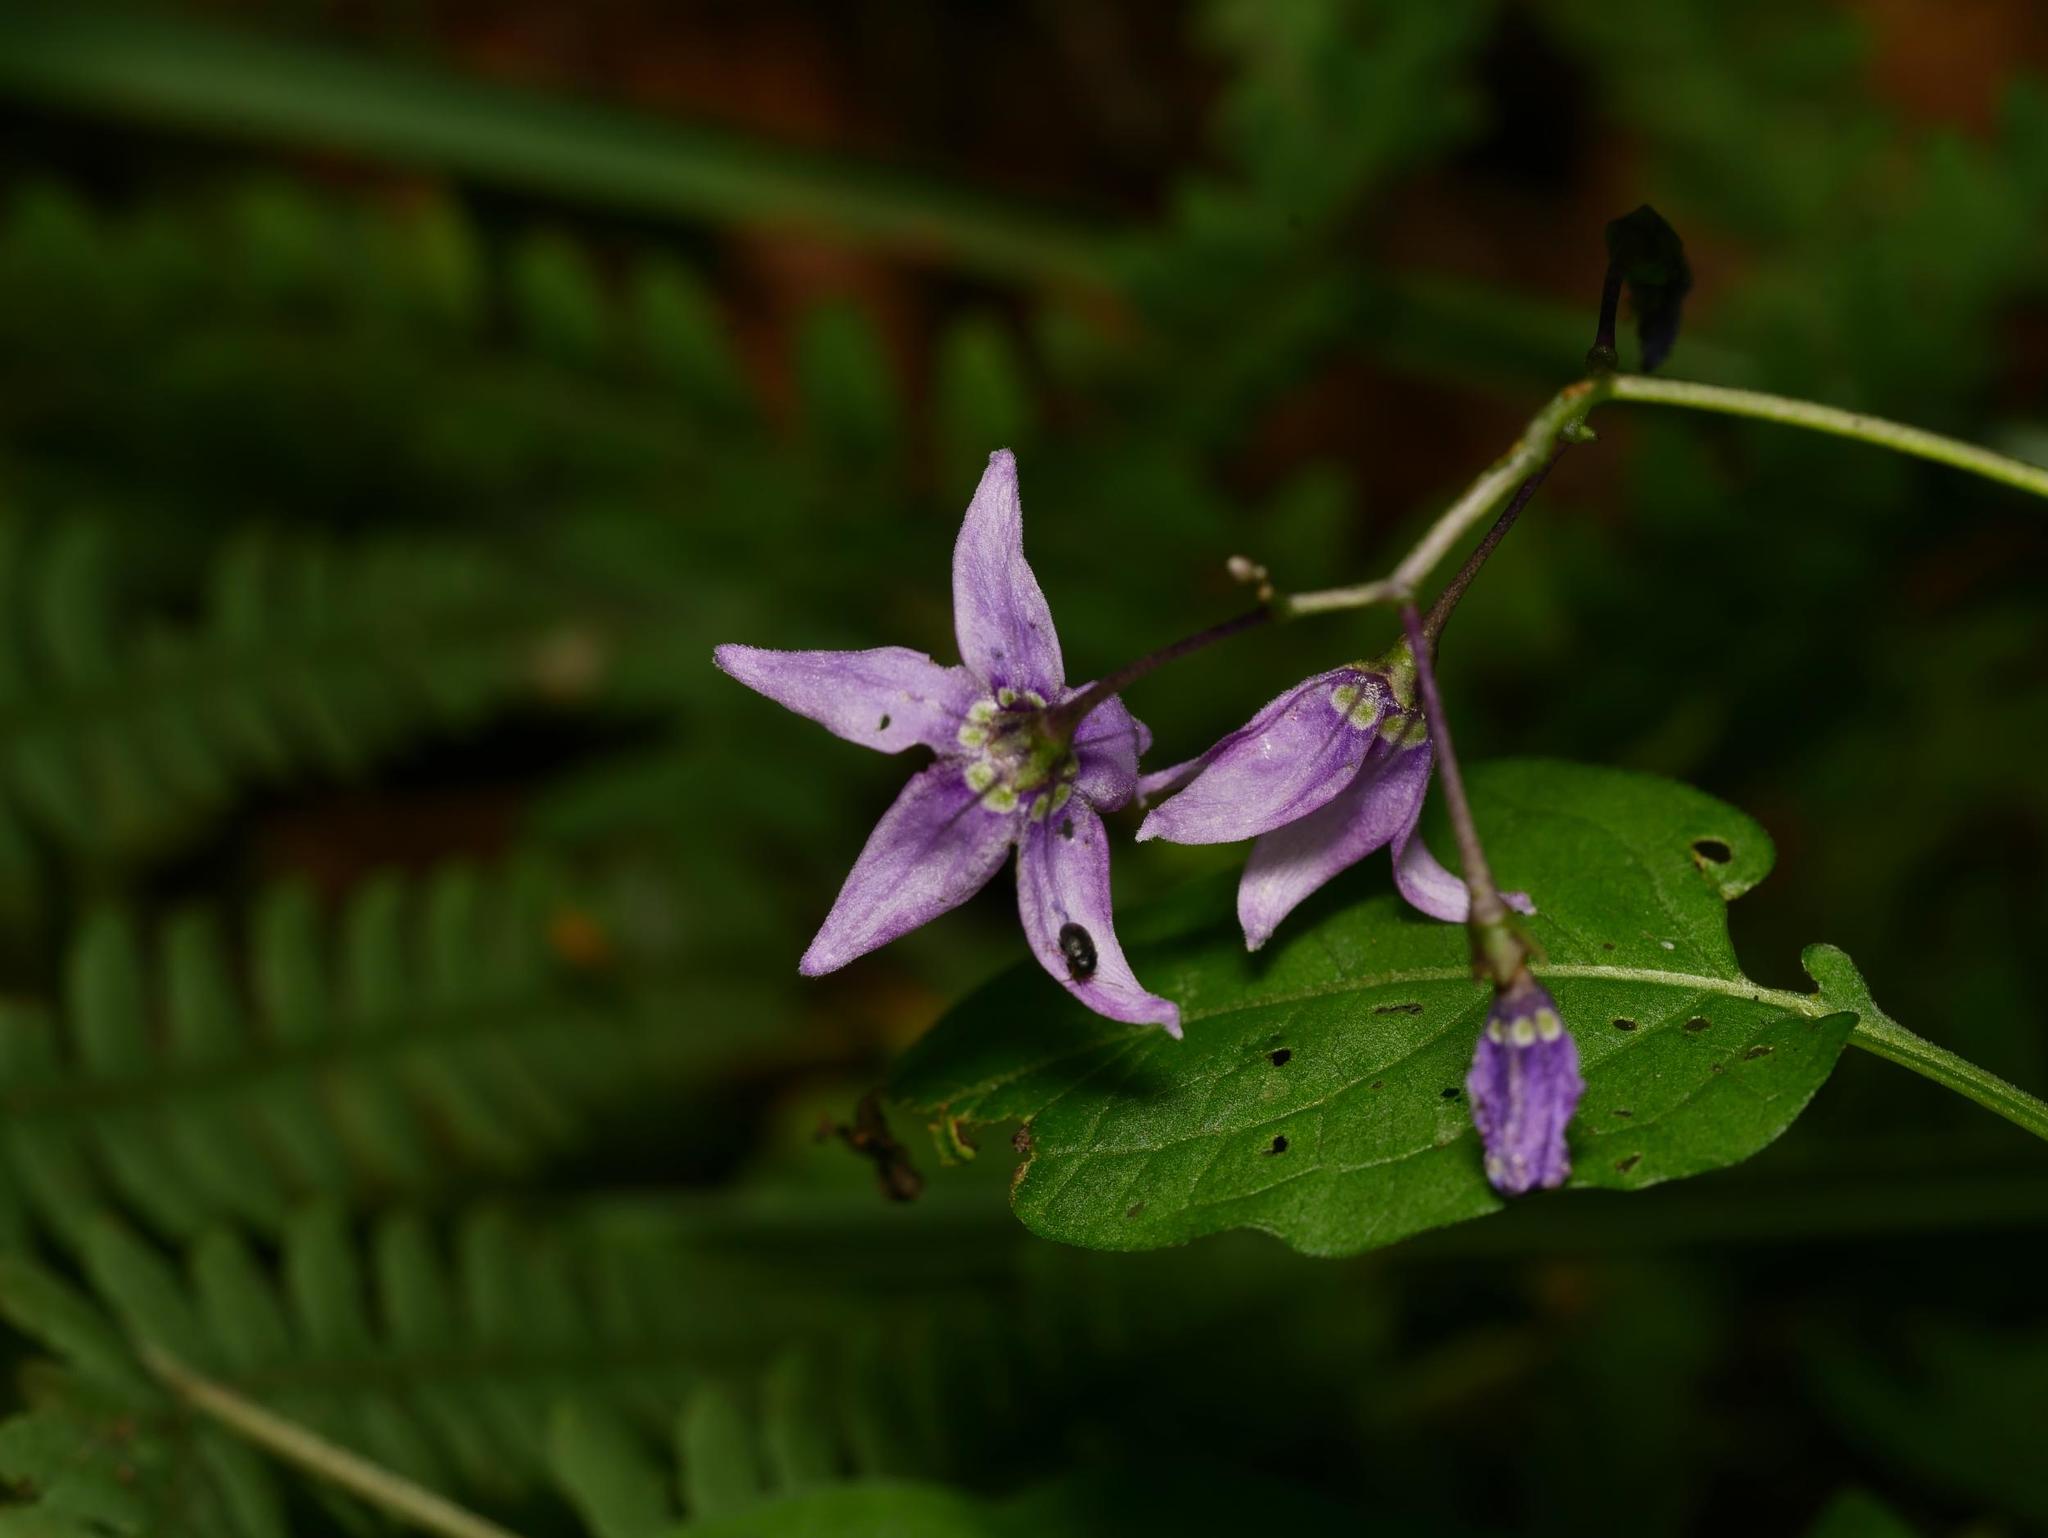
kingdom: Plantae
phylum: Tracheophyta
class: Magnoliopsida
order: Solanales
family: Solanaceae
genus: Solanum
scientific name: Solanum dulcamara
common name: Climbing nightshade
